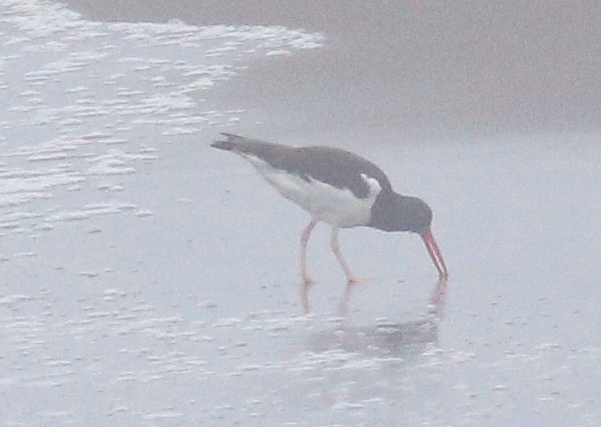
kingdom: Animalia
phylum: Chordata
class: Aves
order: Charadriiformes
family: Haematopodidae
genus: Haematopus
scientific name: Haematopus palliatus
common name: American oystercatcher
